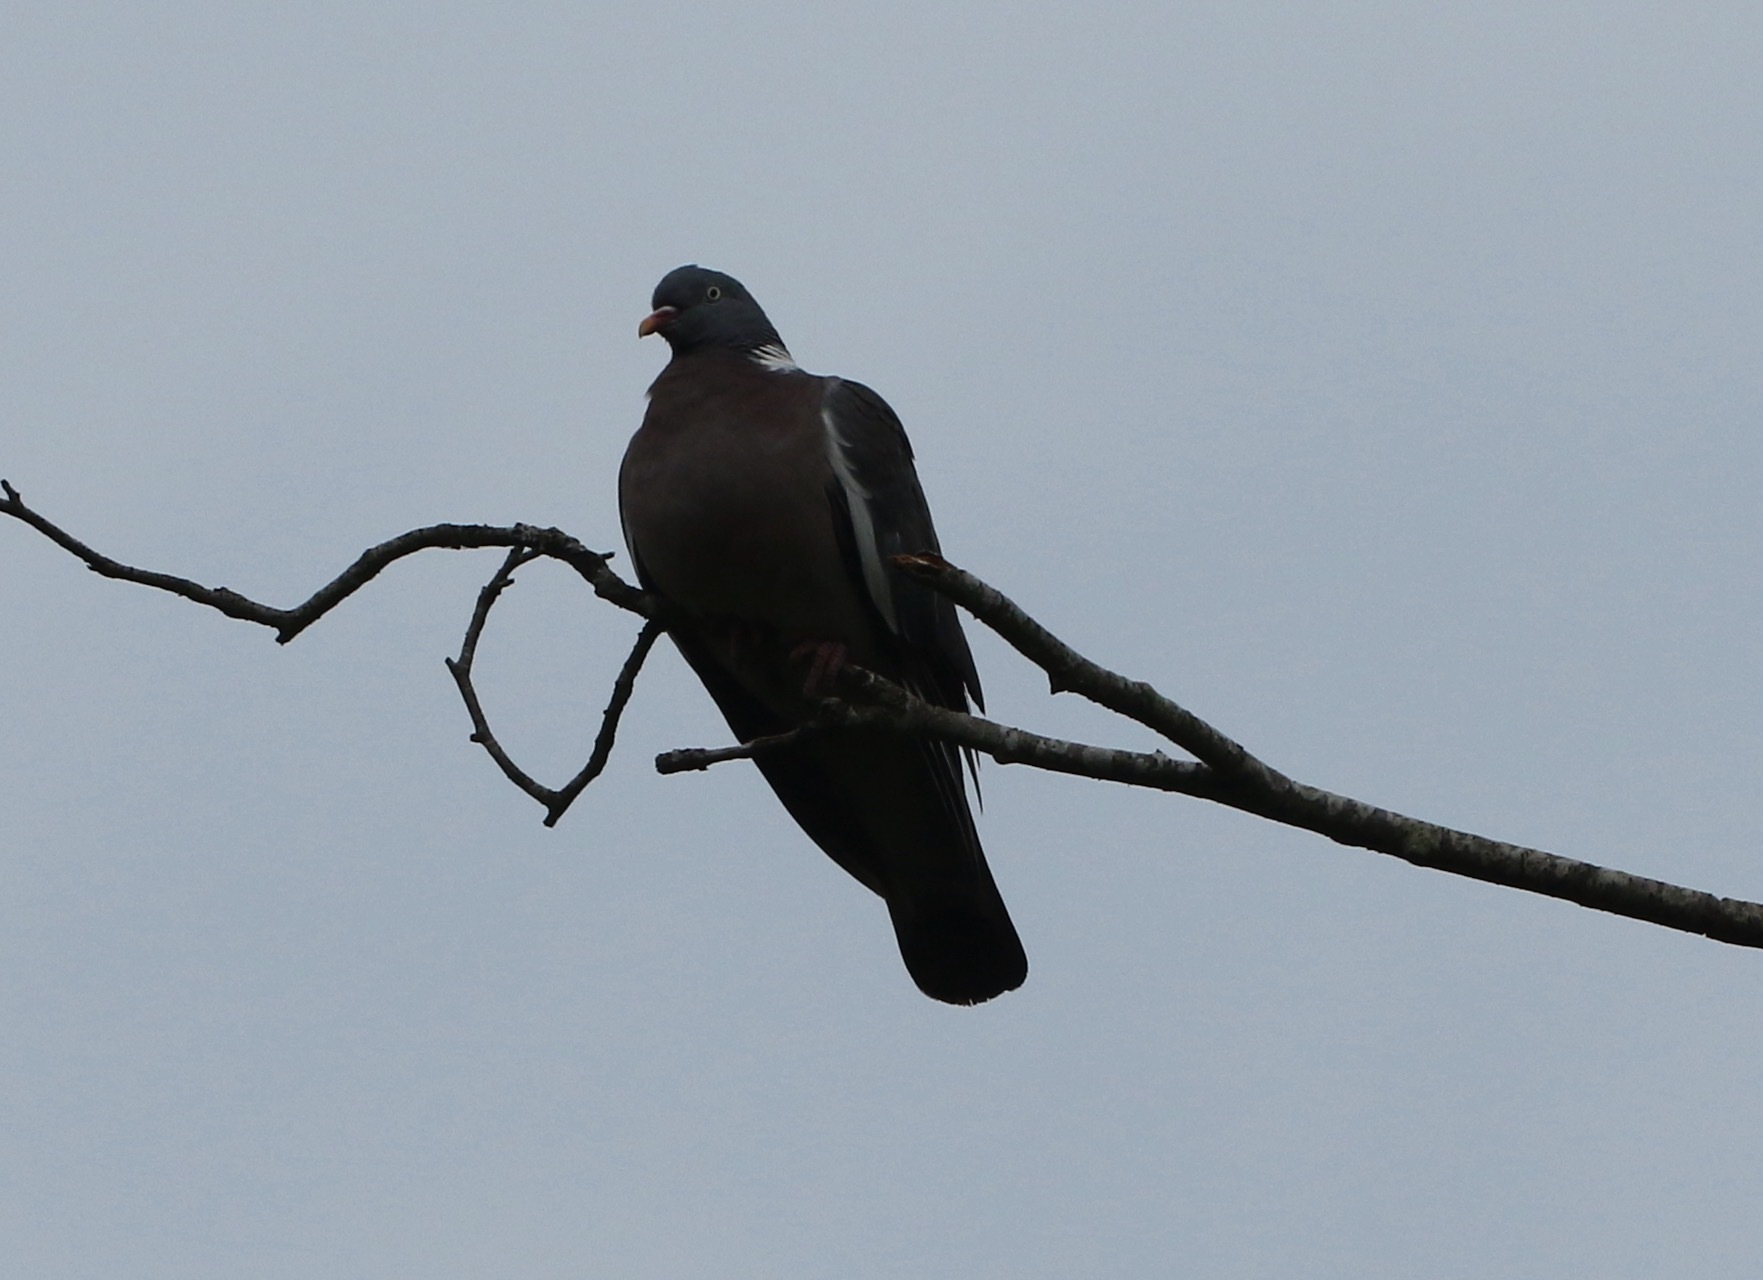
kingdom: Animalia
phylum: Chordata
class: Aves
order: Columbiformes
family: Columbidae
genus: Columba
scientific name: Columba palumbus
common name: Common wood pigeon
